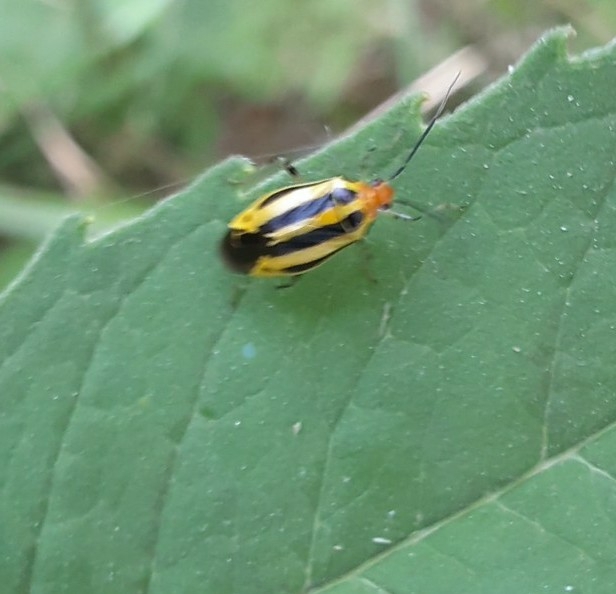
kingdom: Animalia
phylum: Arthropoda
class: Insecta
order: Hemiptera
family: Miridae
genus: Poecilocapsus
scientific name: Poecilocapsus lineatus
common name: Four-lined plant bug
